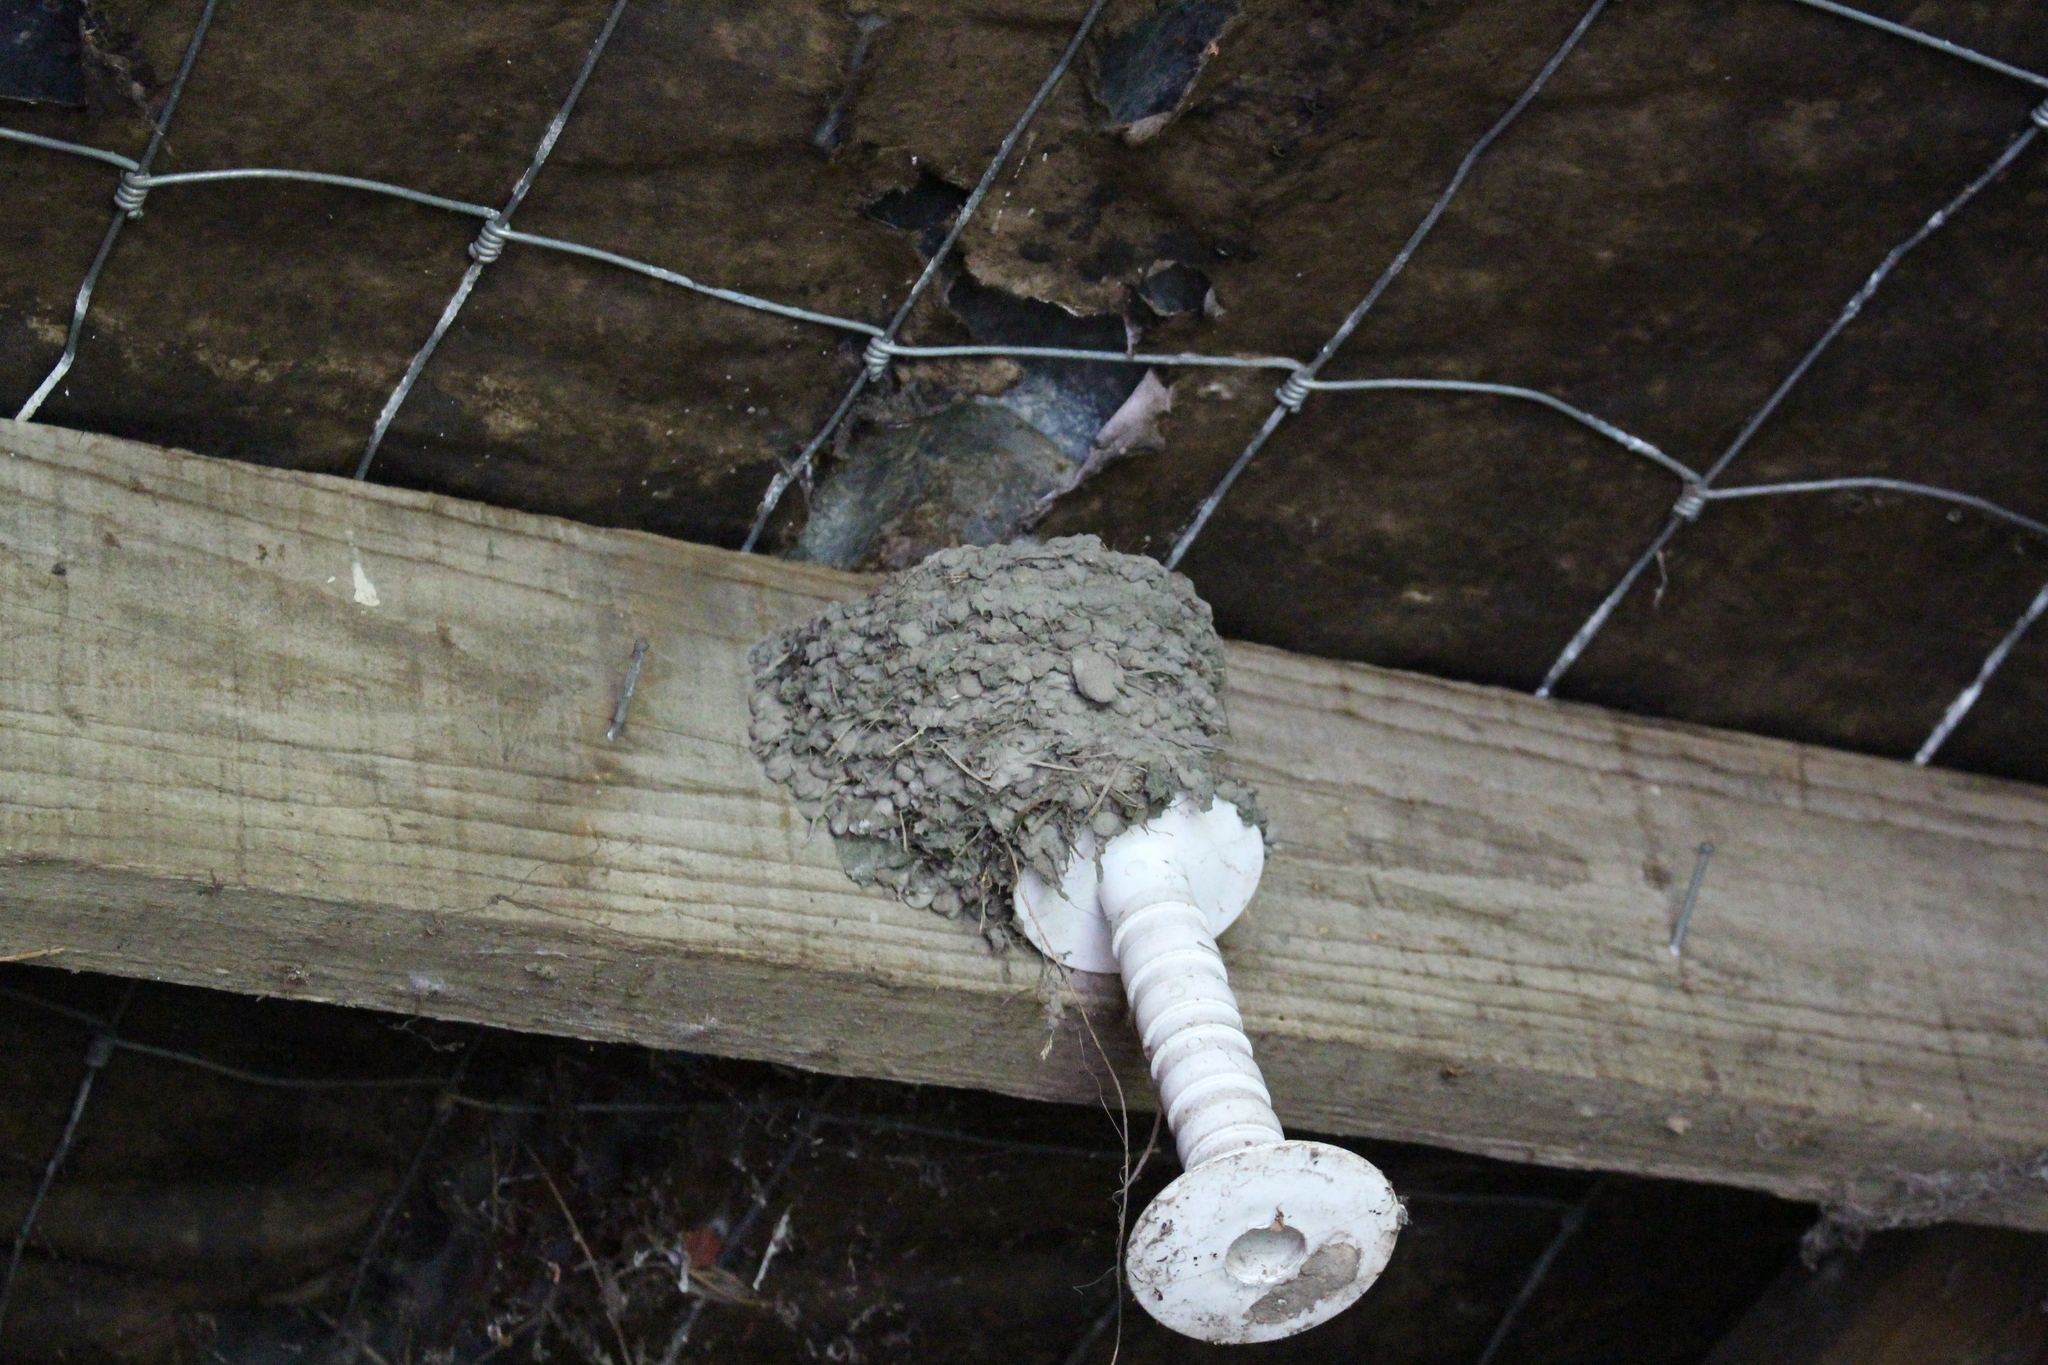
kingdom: Animalia
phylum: Chordata
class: Aves
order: Passeriformes
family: Hirundinidae
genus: Hirundo
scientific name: Hirundo neoxena
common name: Welcome swallow
